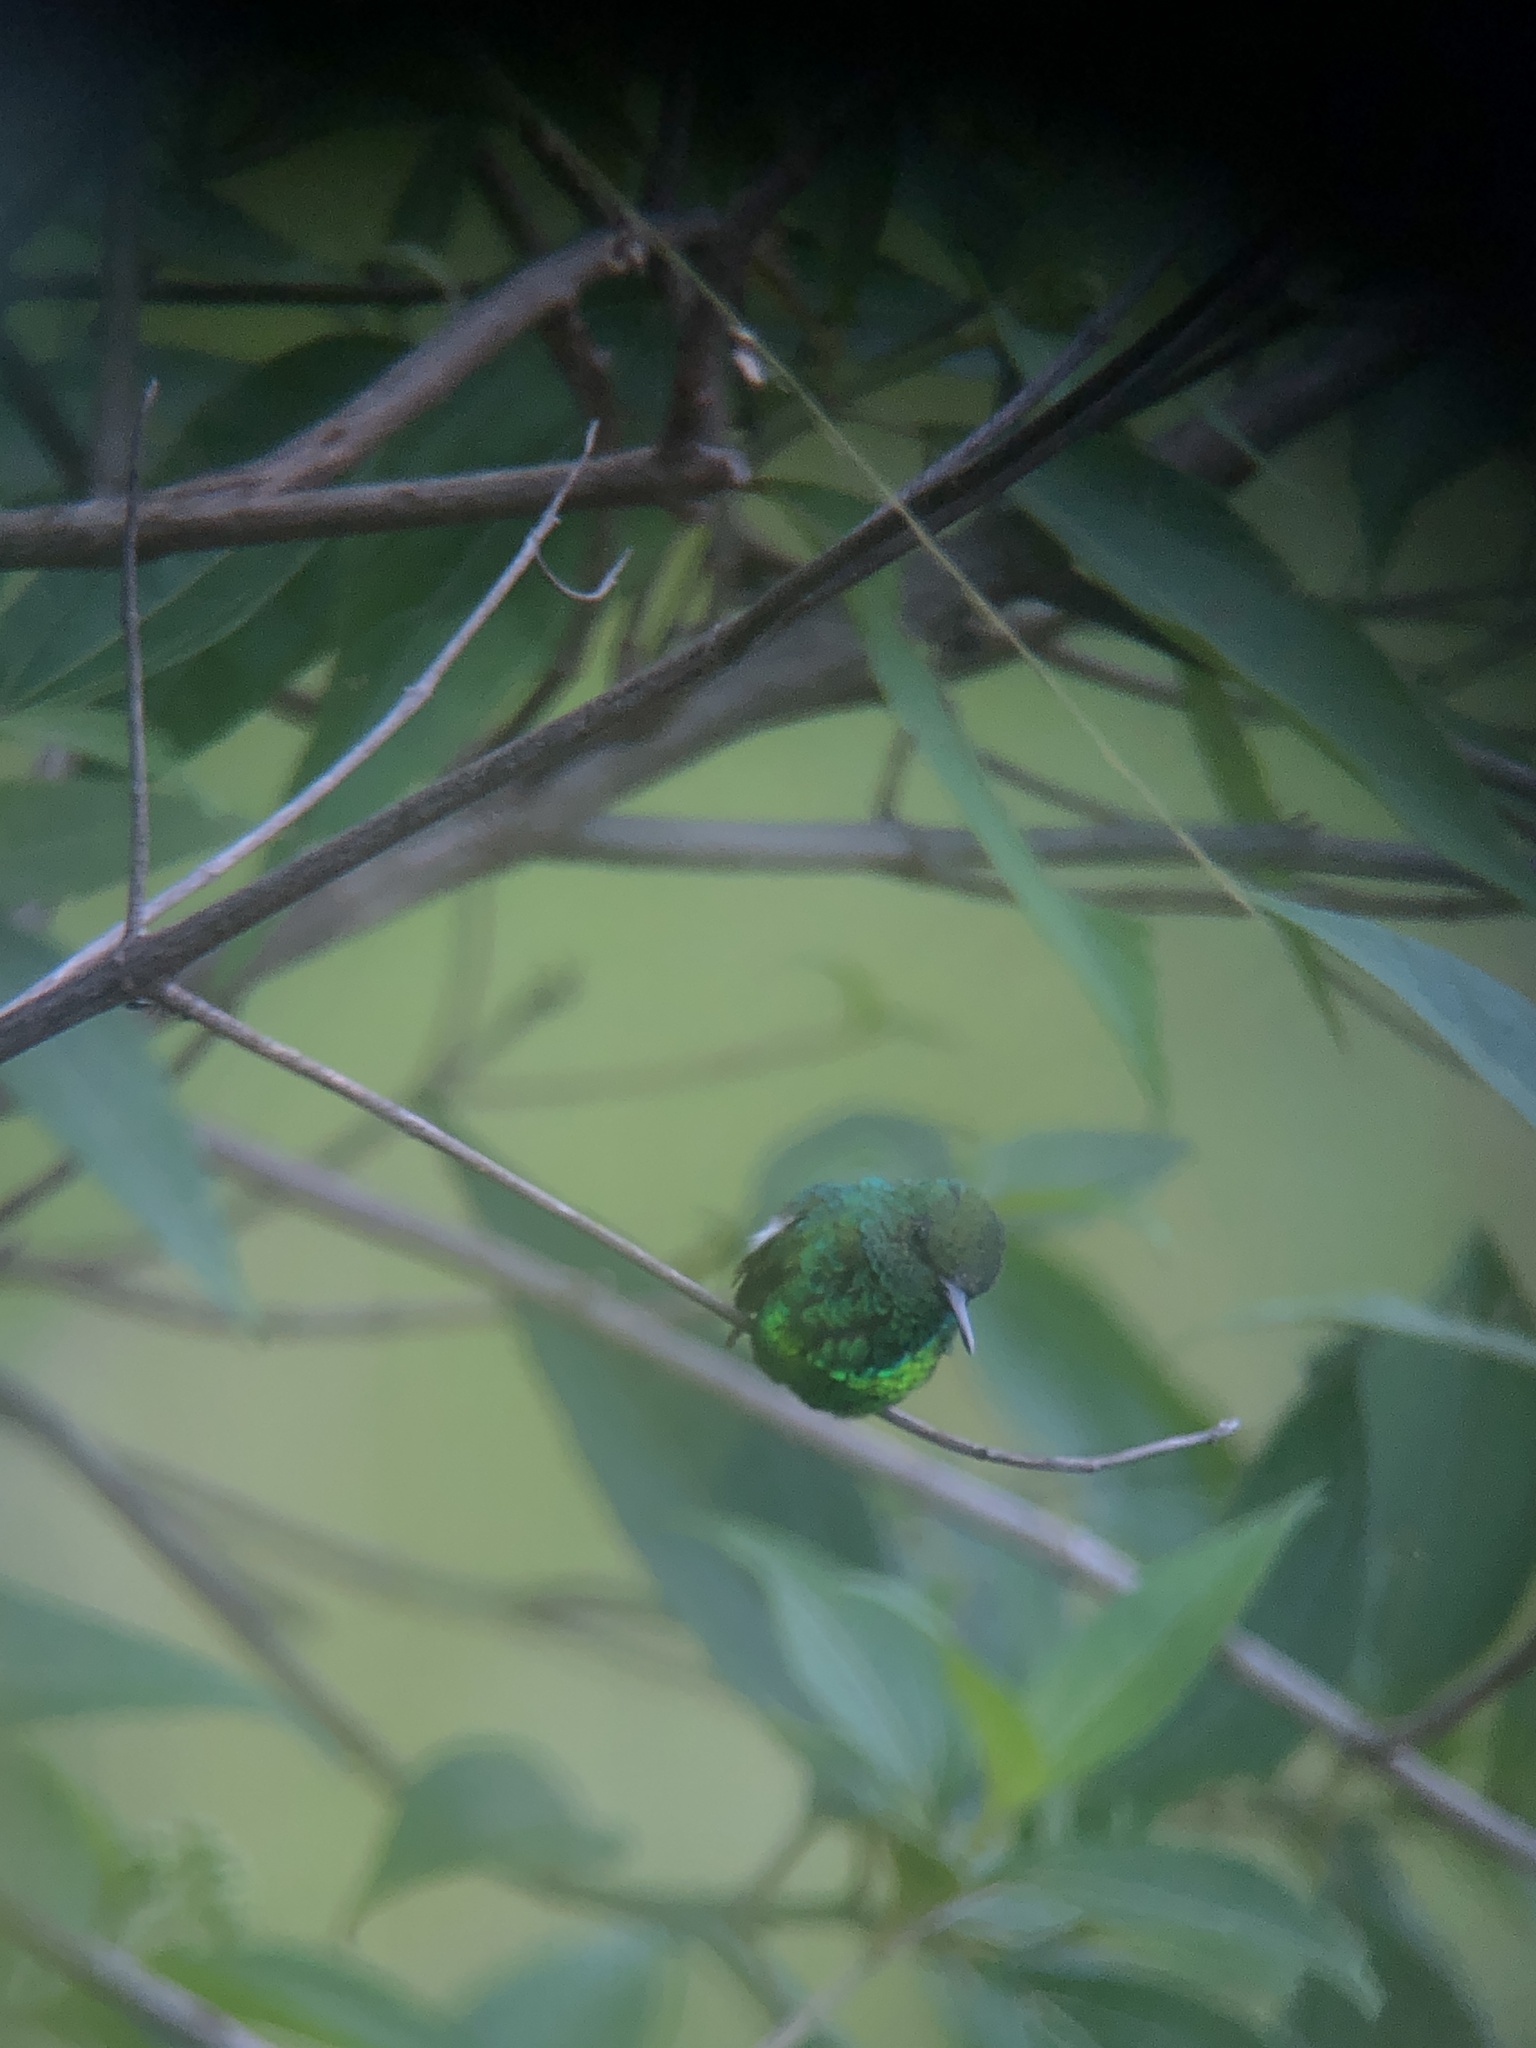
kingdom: Animalia
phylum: Chordata
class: Aves
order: Apodiformes
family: Trochilidae
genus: Chlorostilbon
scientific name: Chlorostilbon assimilis
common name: Garden emerald
